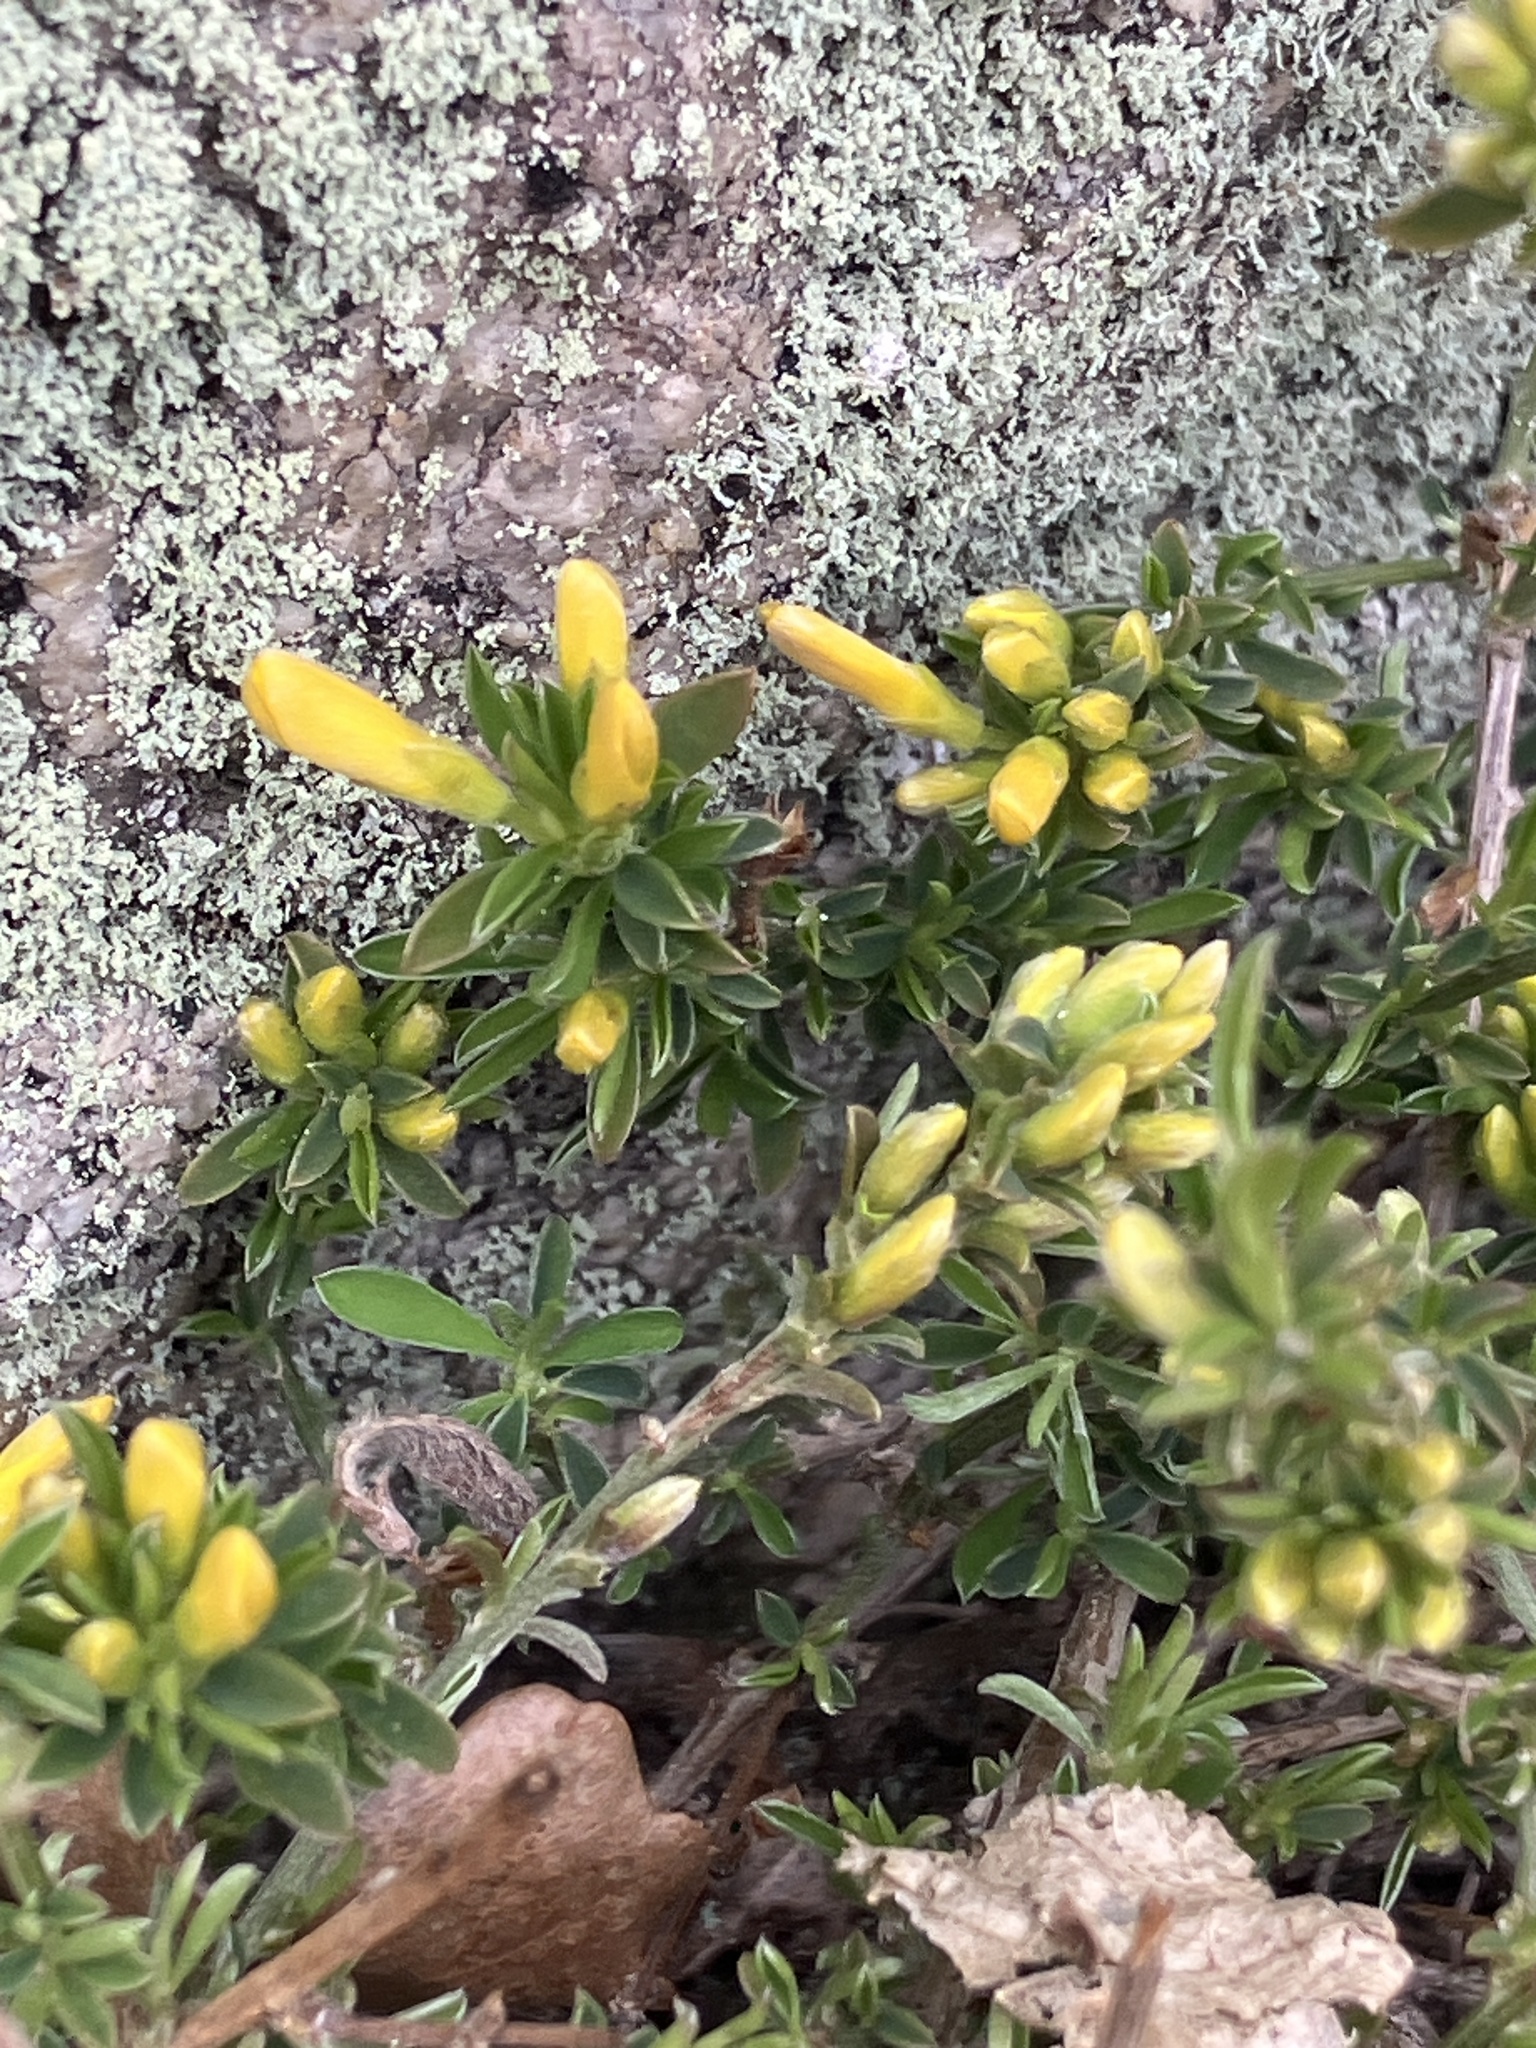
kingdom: Plantae
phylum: Tracheophyta
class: Magnoliopsida
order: Fabales
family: Fabaceae
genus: Genista
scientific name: Genista pilosa
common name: Hairy greenweed
